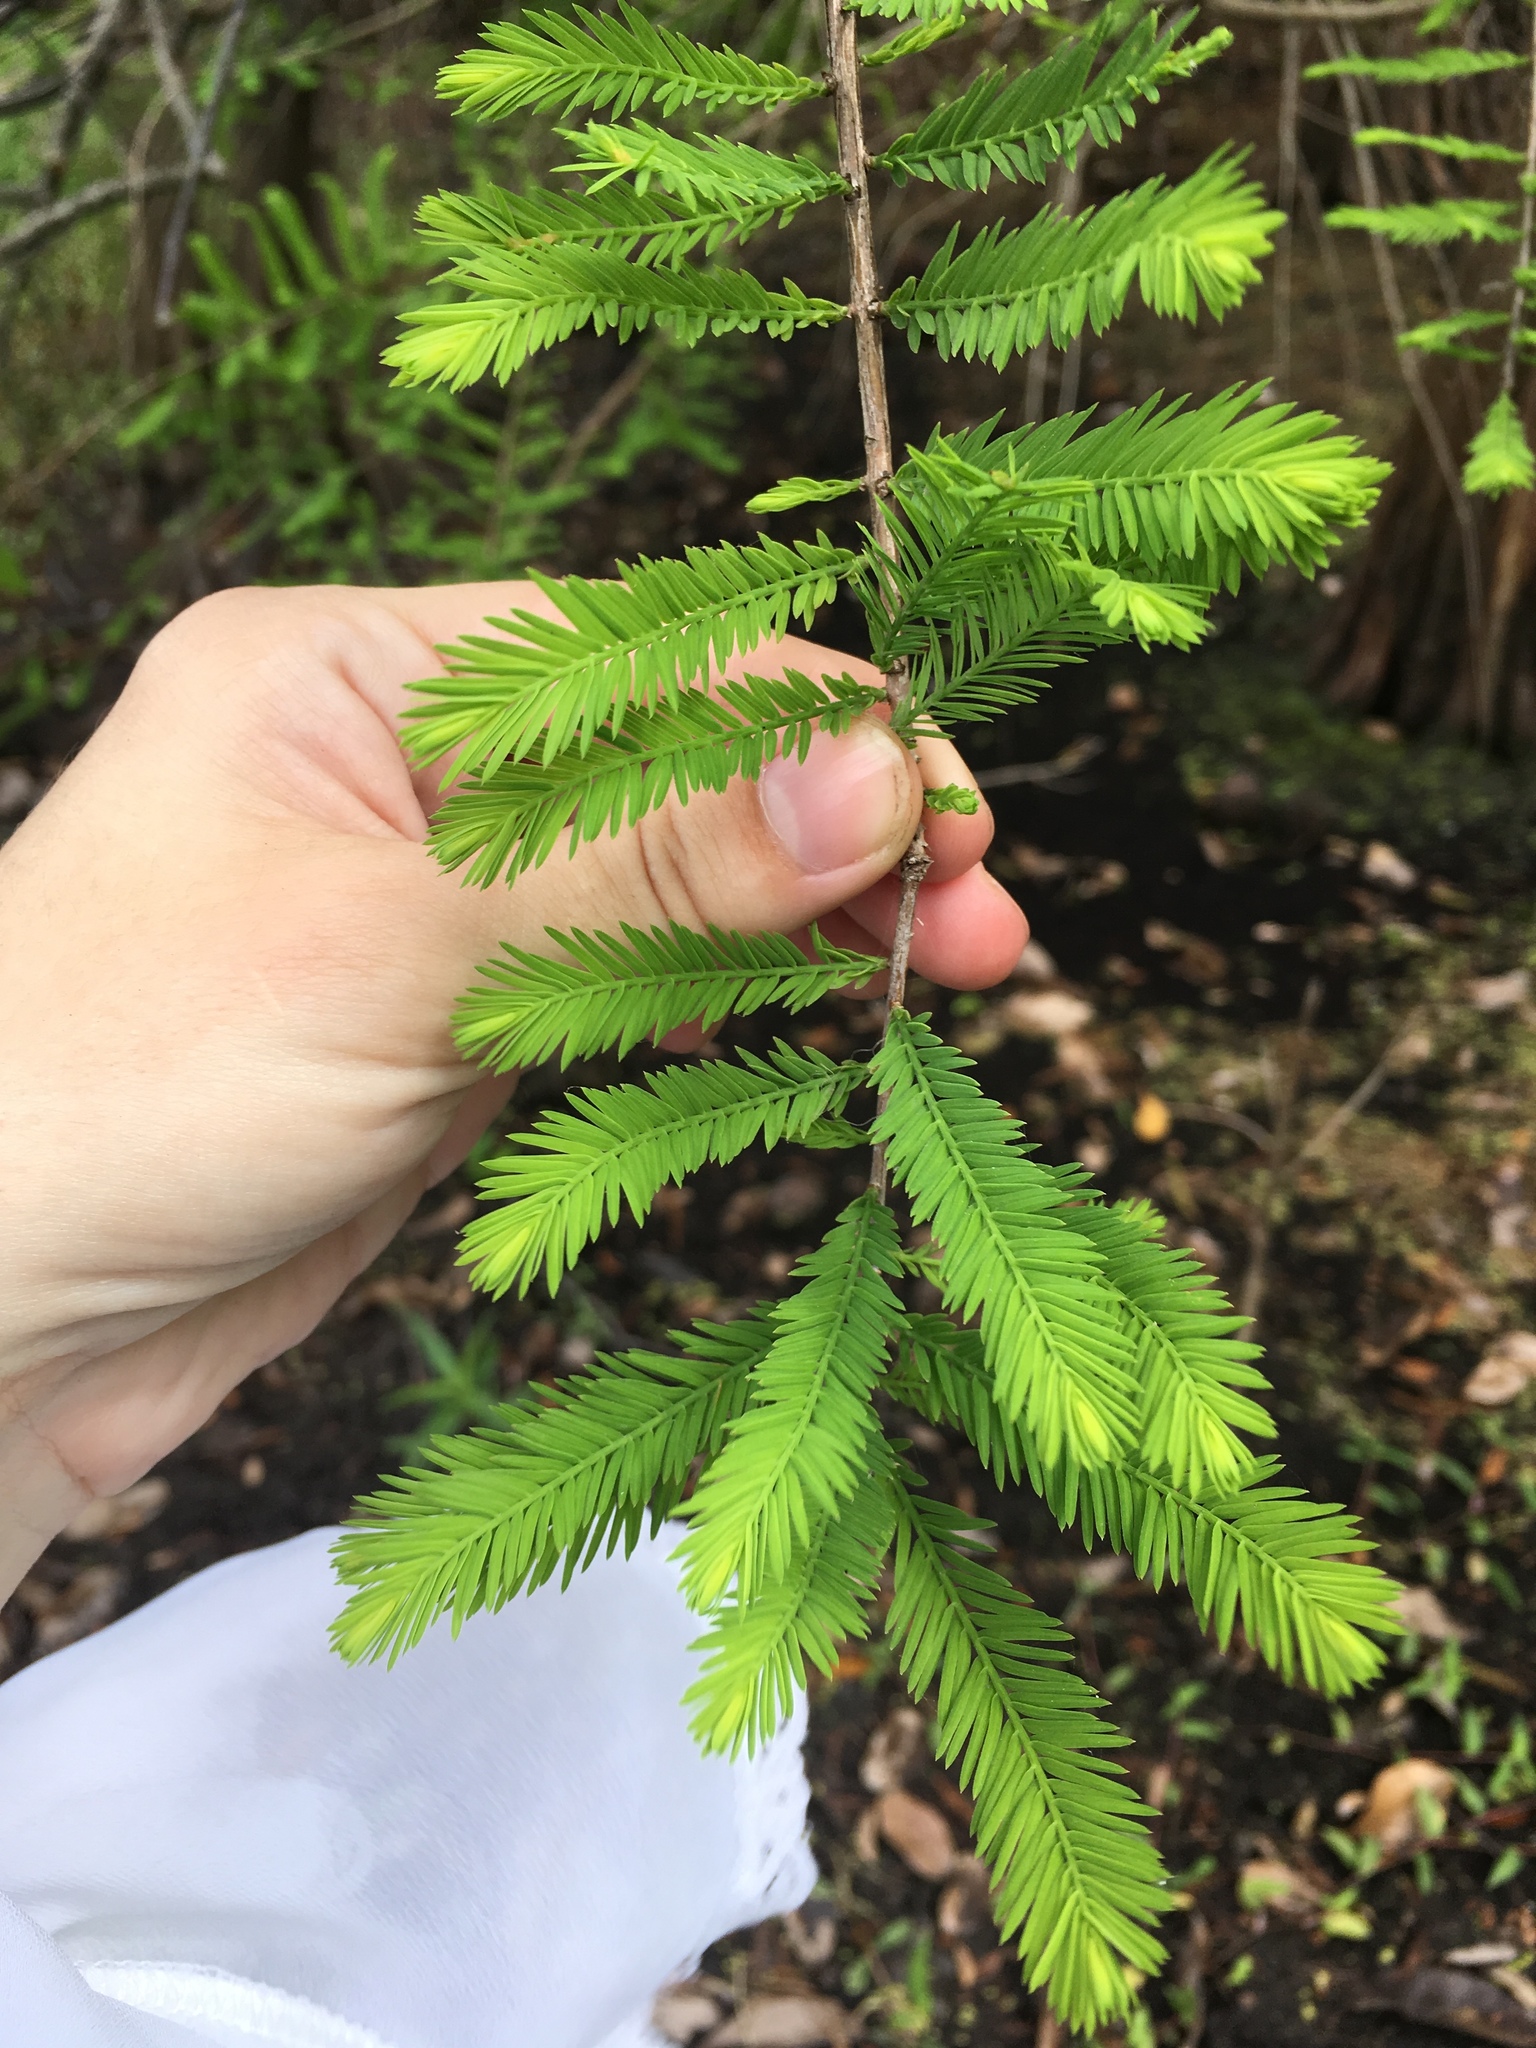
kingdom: Plantae
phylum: Tracheophyta
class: Pinopsida
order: Pinales
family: Cupressaceae
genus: Taxodium
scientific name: Taxodium distichum
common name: Bald cypress
